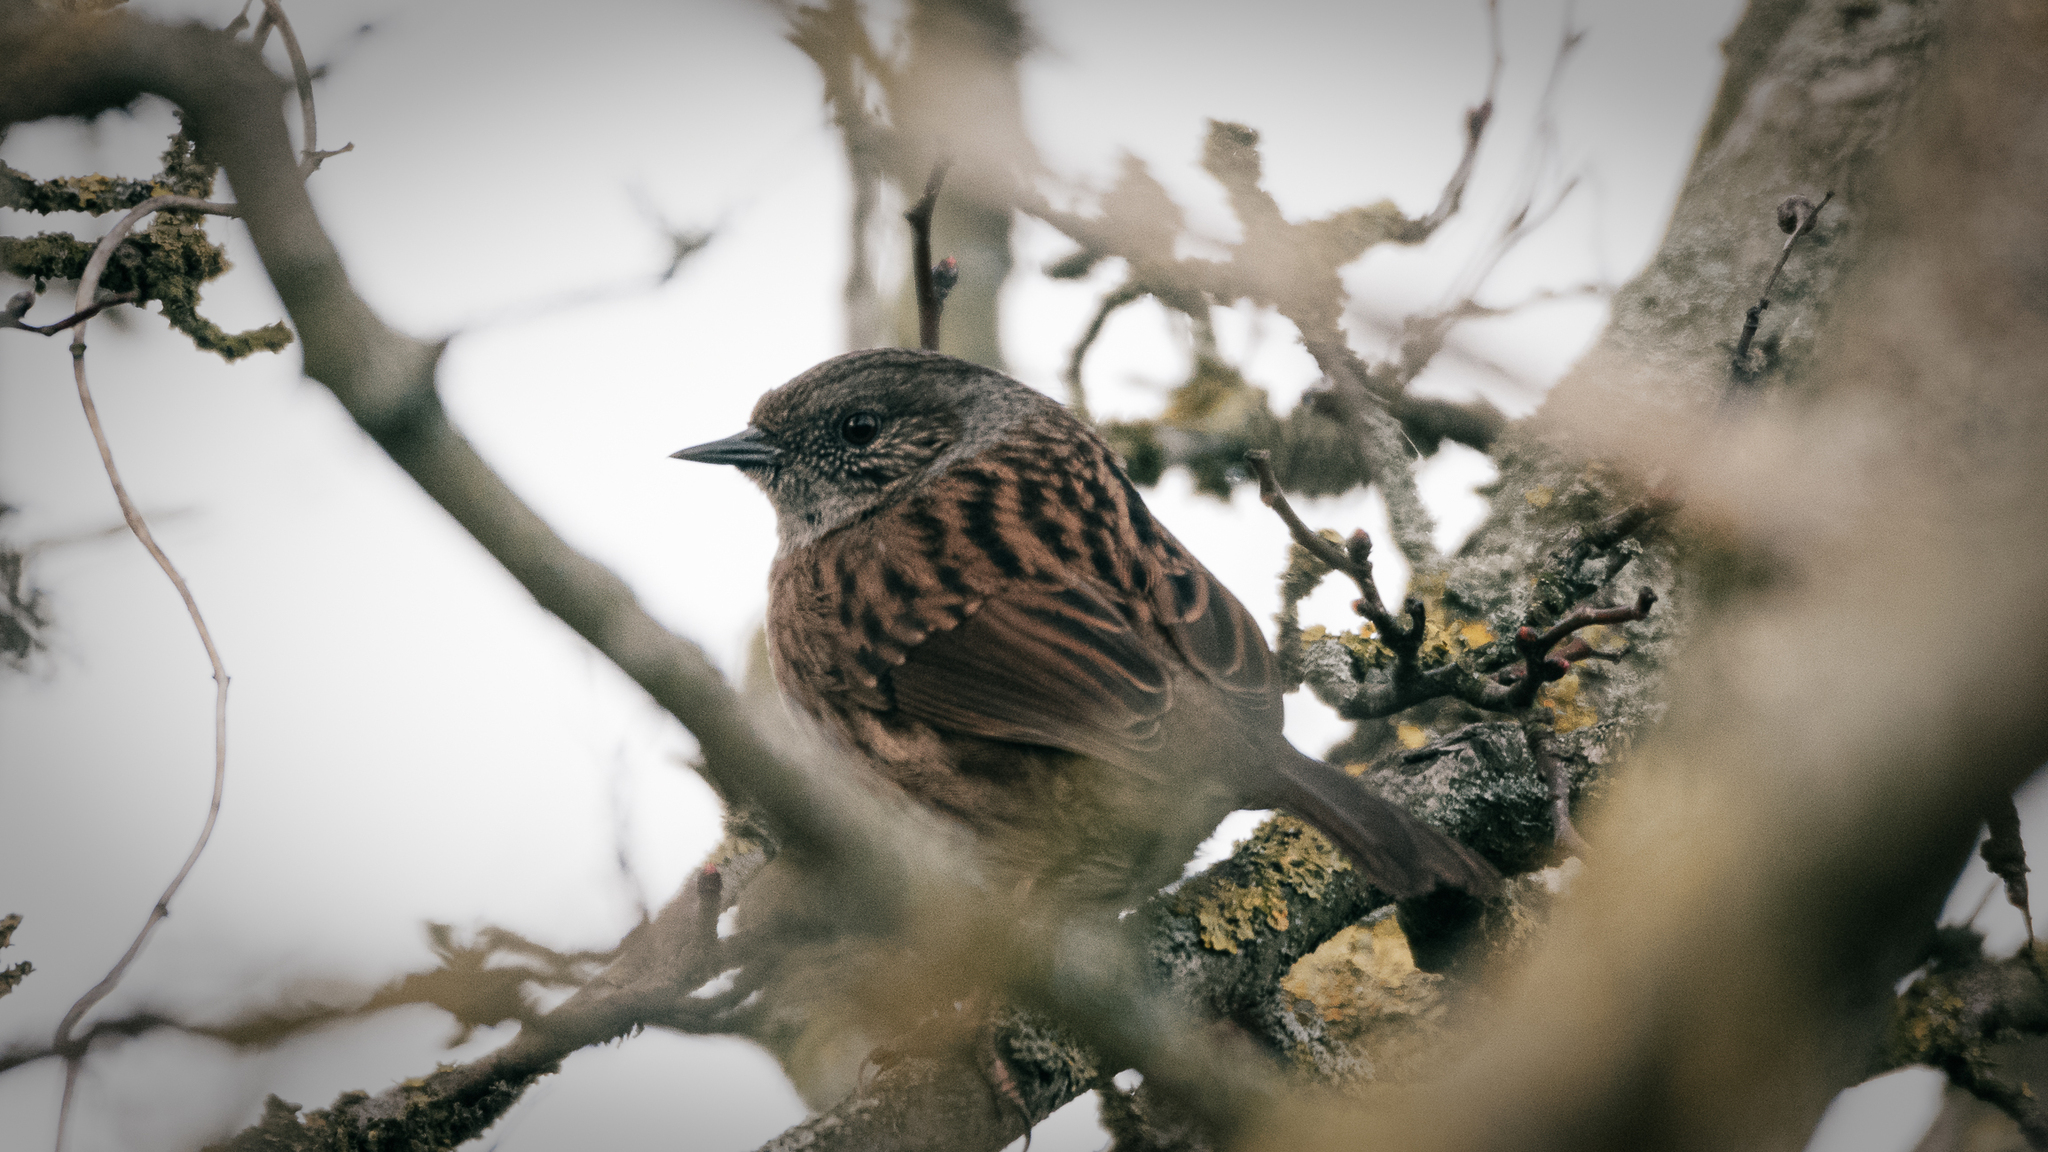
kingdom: Animalia
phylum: Chordata
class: Aves
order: Passeriformes
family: Prunellidae
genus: Prunella
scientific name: Prunella modularis
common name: Dunnock
